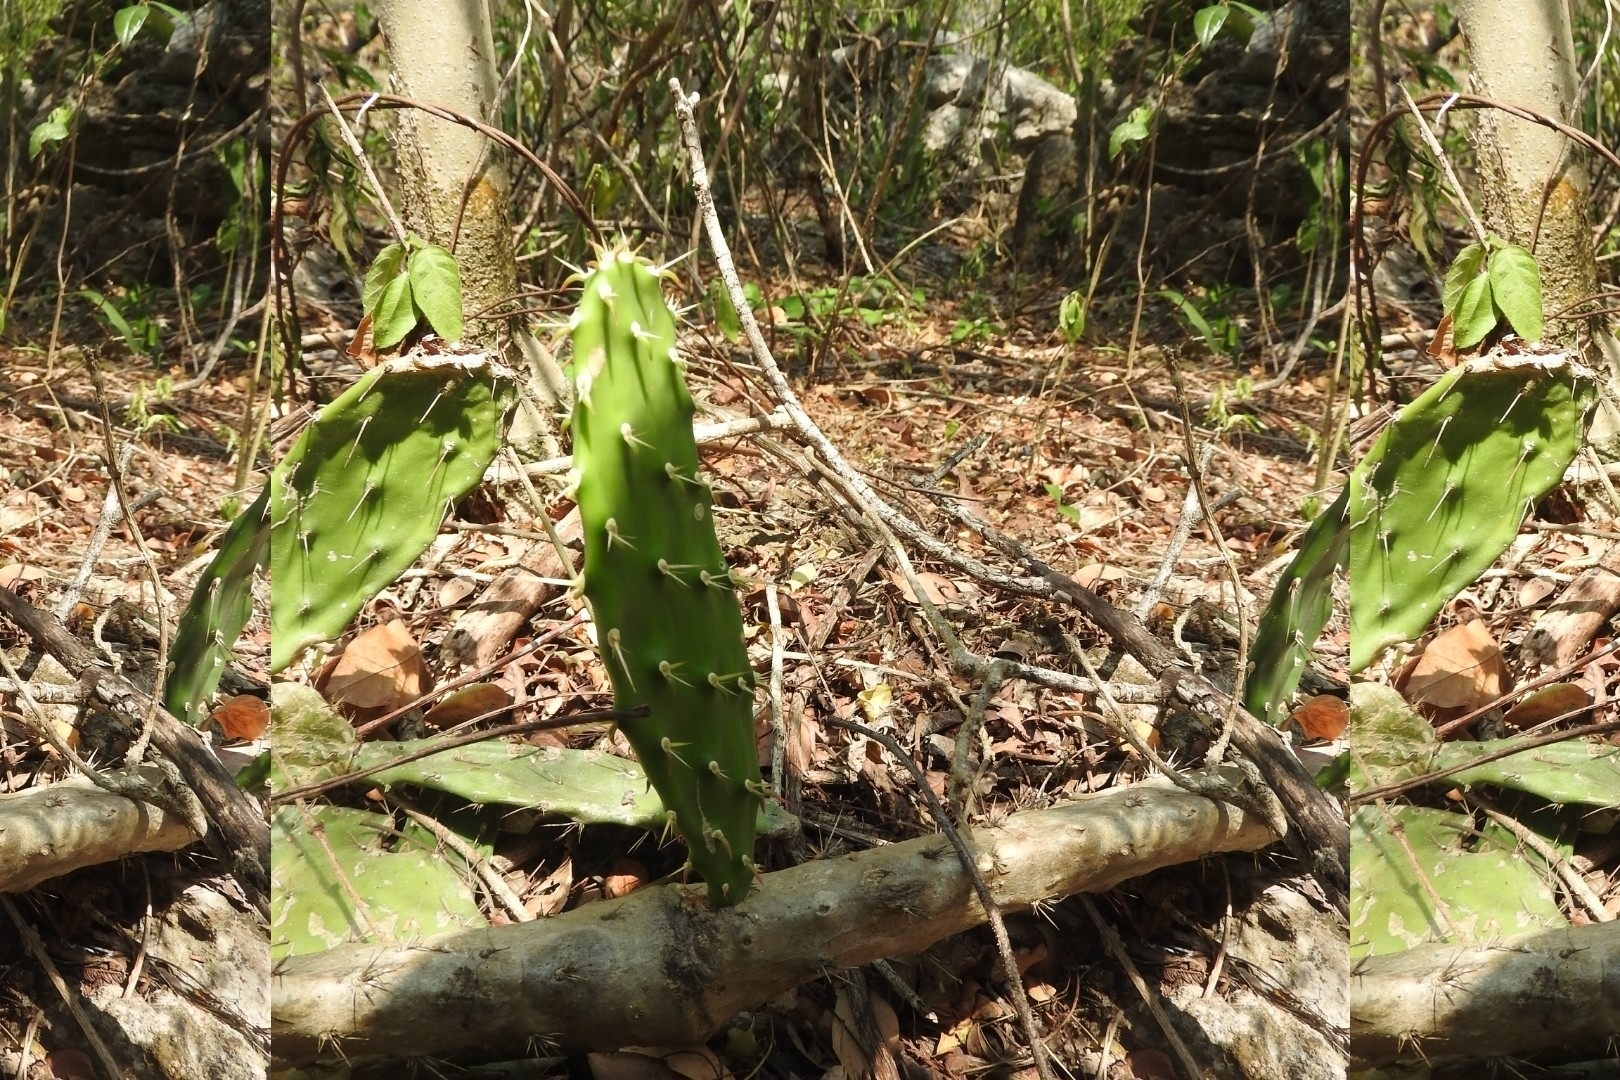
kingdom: Plantae
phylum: Tracheophyta
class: Magnoliopsida
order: Caryophyllales
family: Cactaceae
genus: Opuntia
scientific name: Opuntia hyptiacantha
